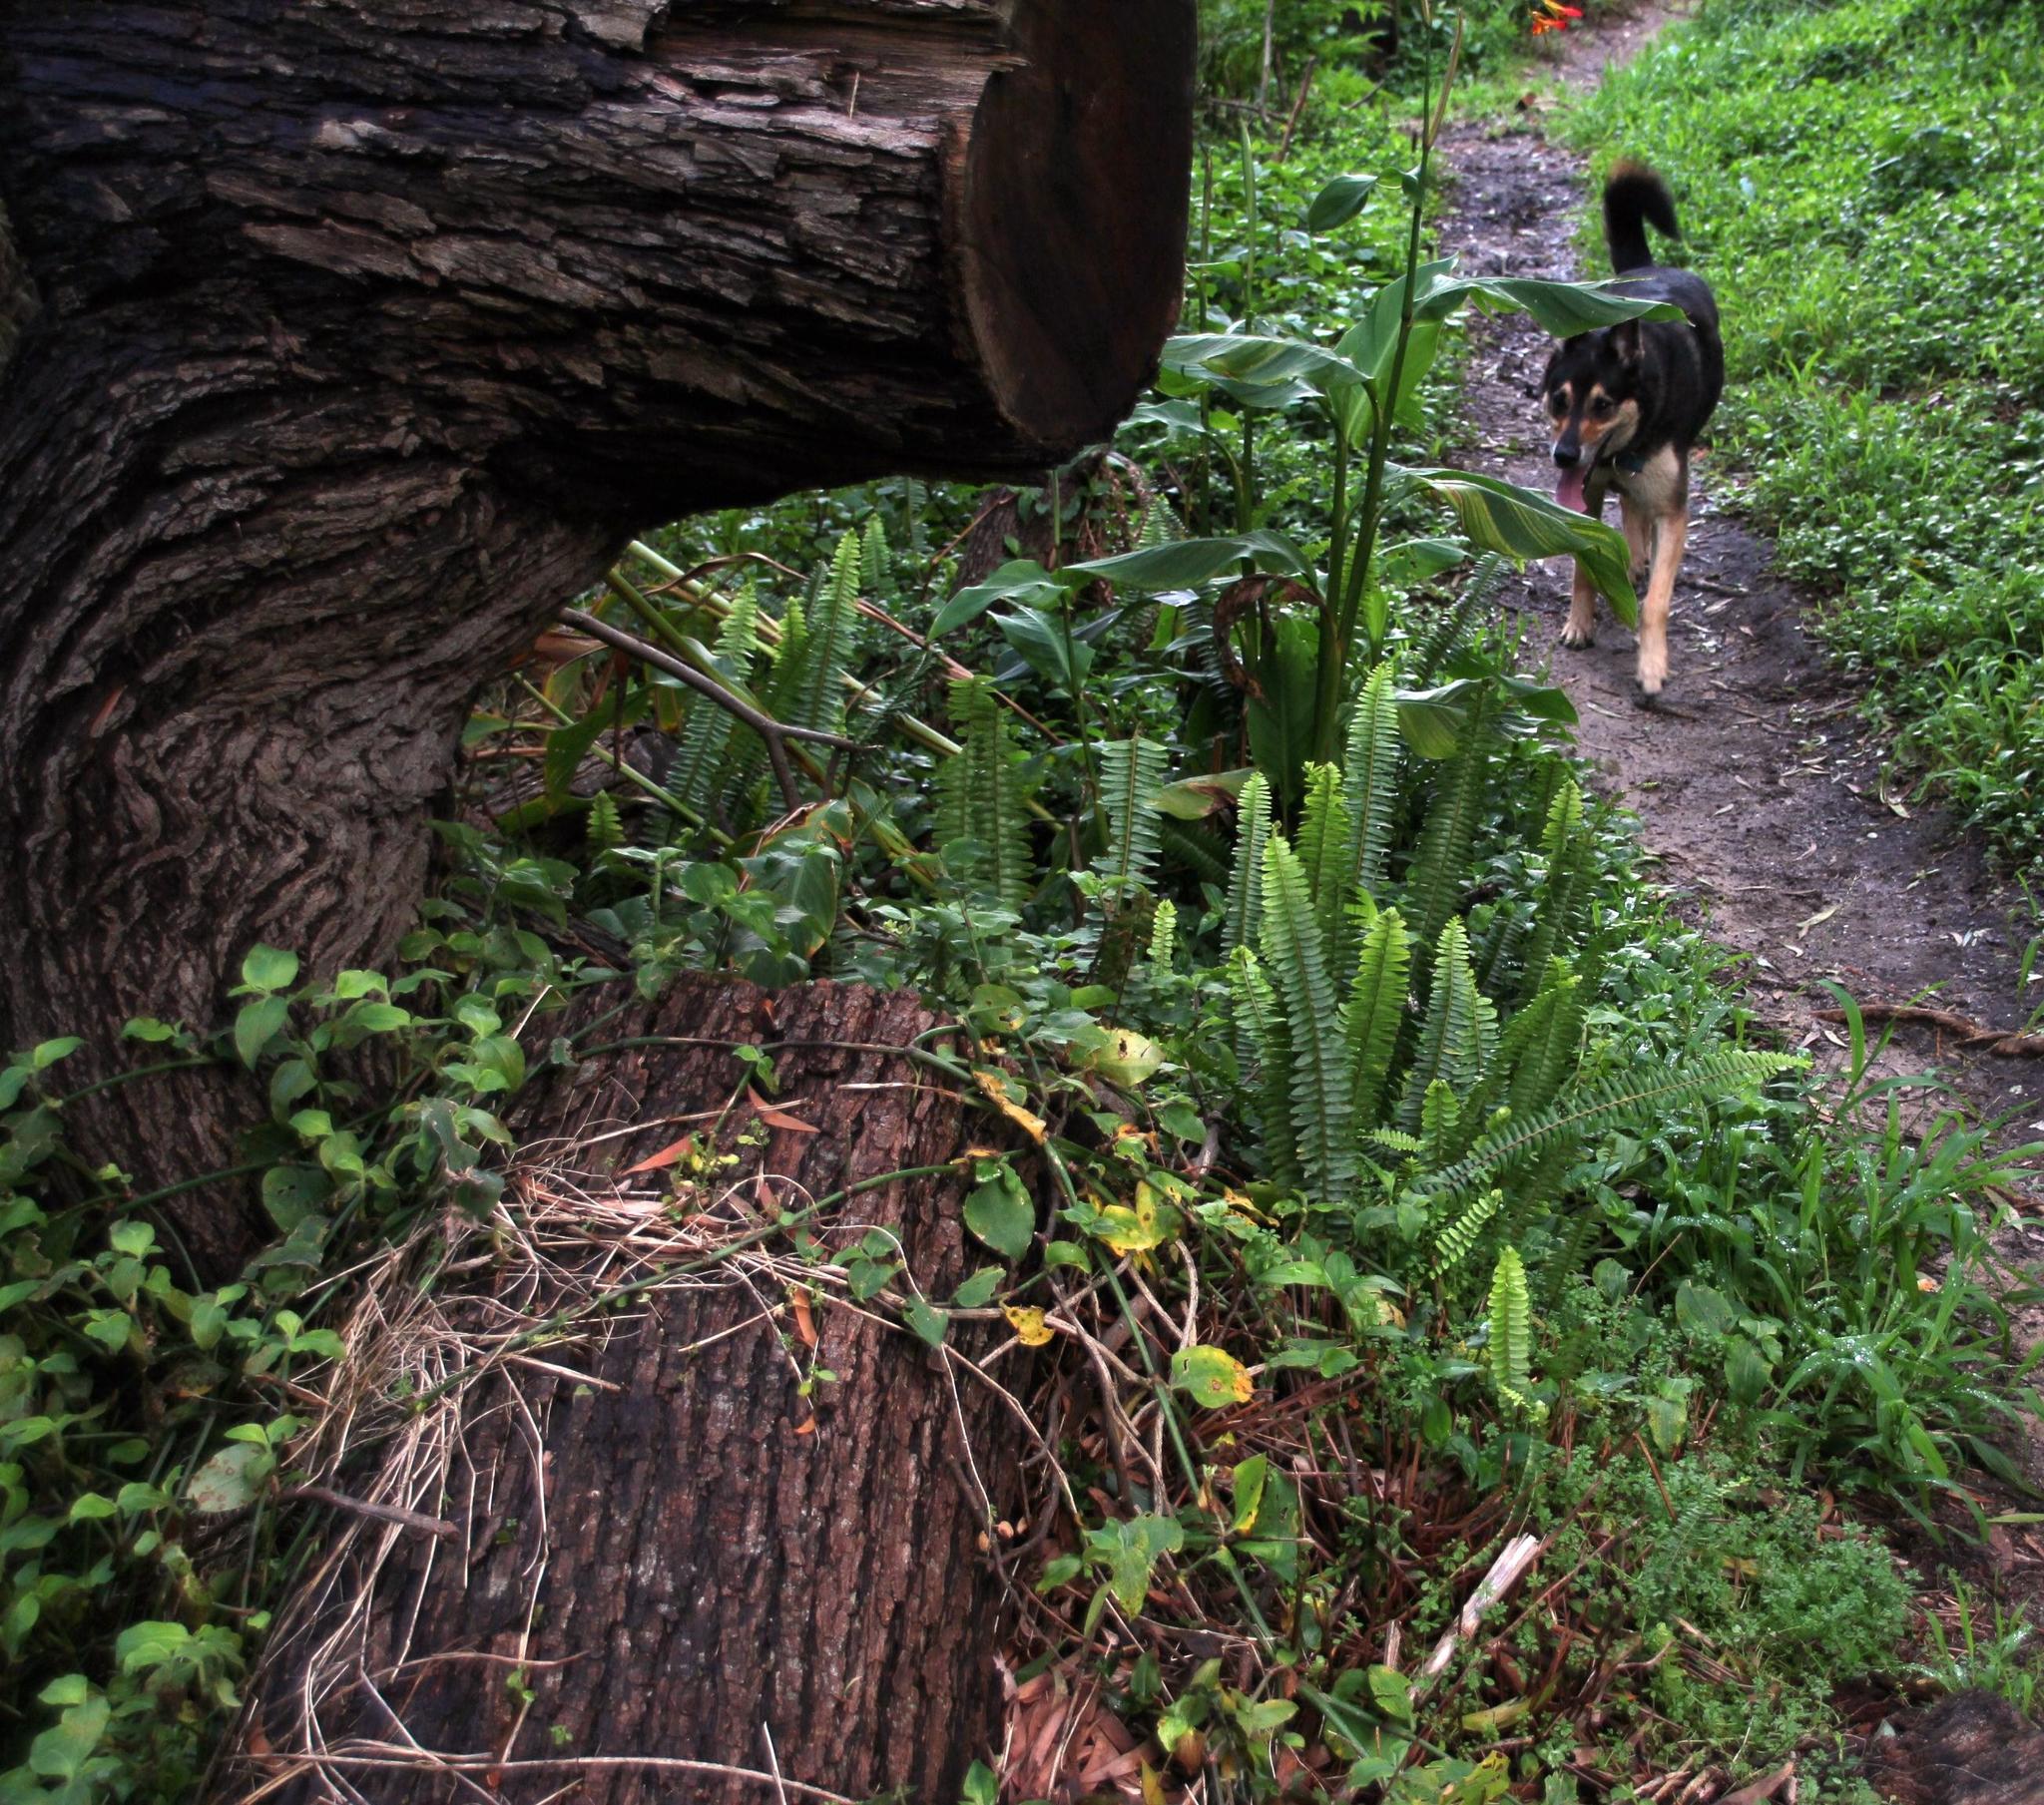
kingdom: Plantae
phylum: Tracheophyta
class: Polypodiopsida
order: Polypodiales
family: Nephrolepidaceae
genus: Nephrolepis
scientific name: Nephrolepis cordifolia
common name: Narrow swordfern
